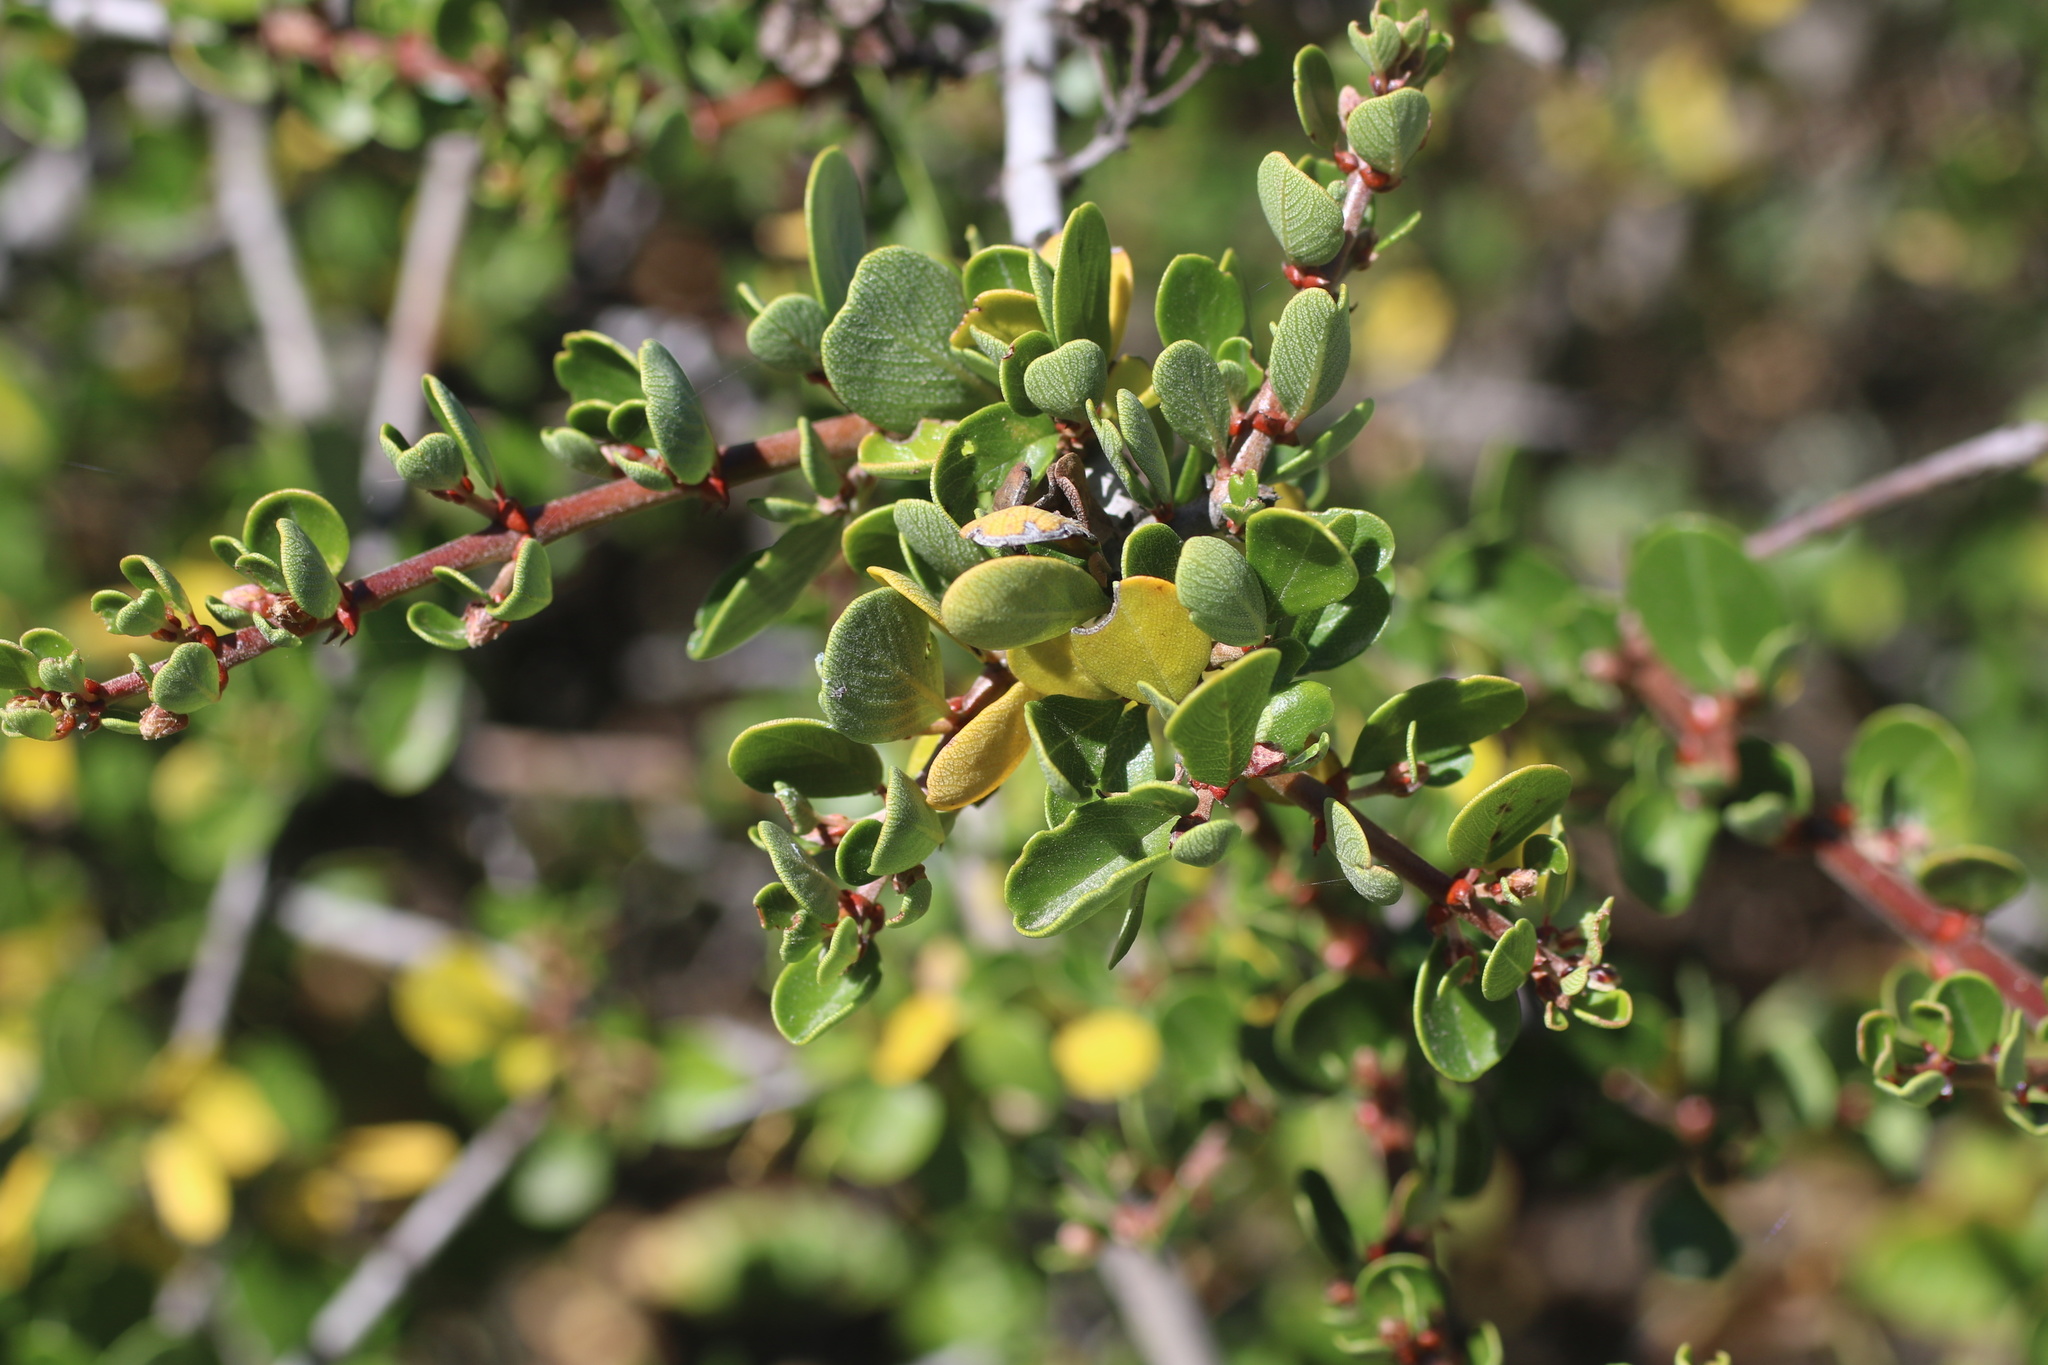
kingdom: Plantae
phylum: Tracheophyta
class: Magnoliopsida
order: Rosales
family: Rhamnaceae
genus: Ceanothus
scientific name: Ceanothus cuneatus
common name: Cuneate ceanothus
